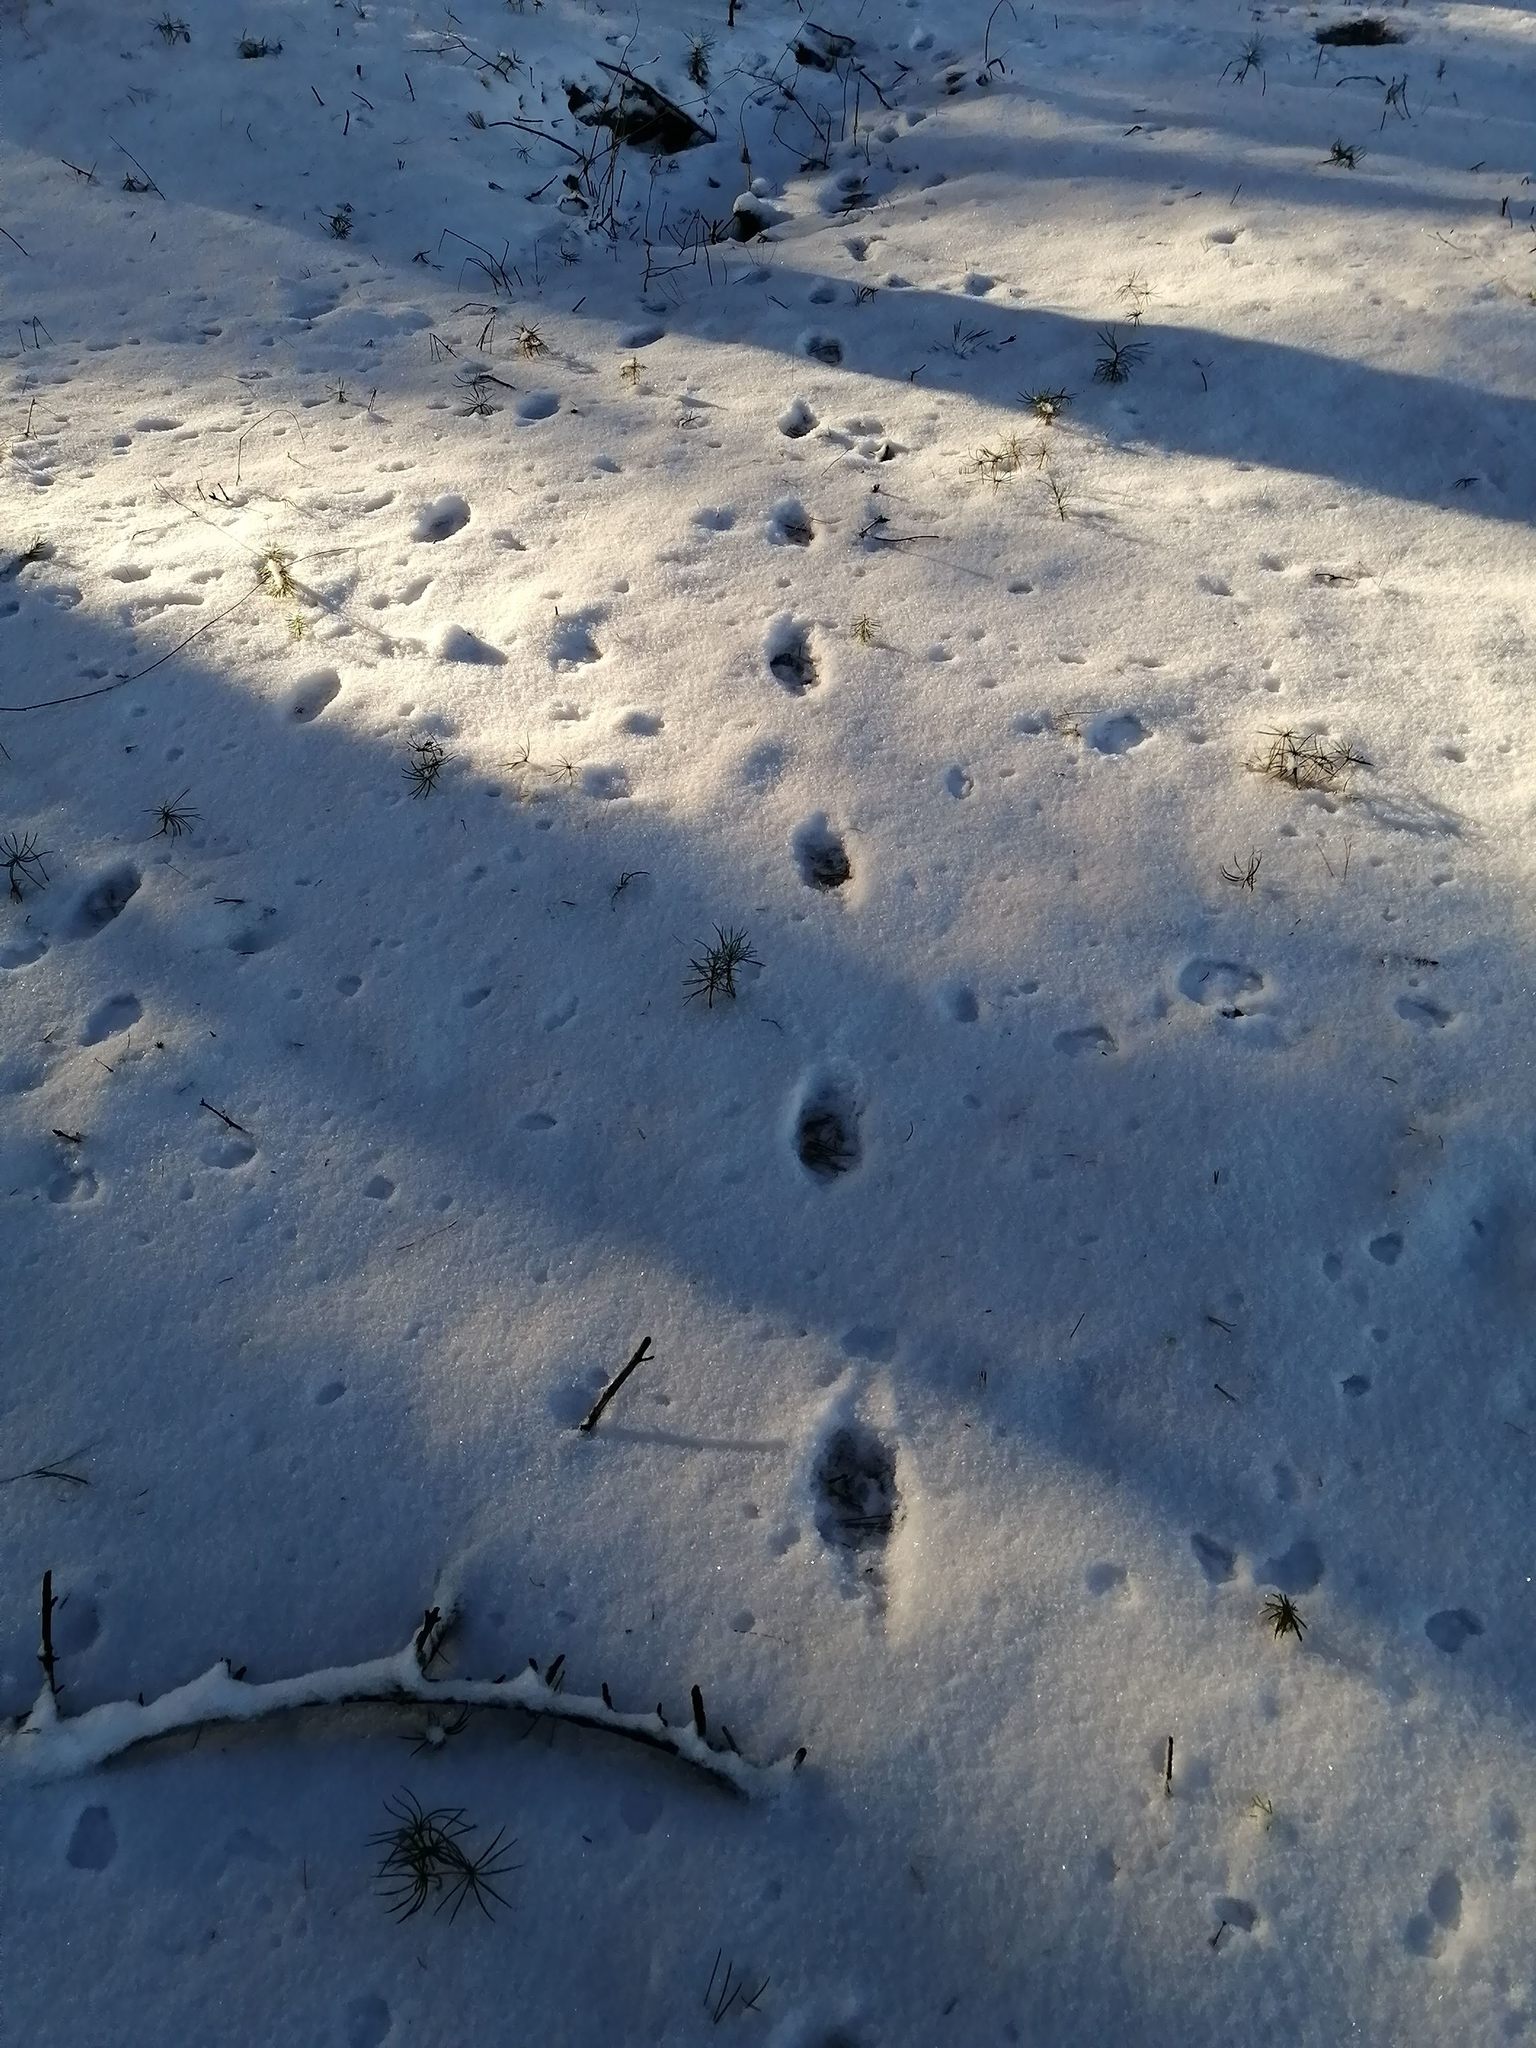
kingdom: Animalia
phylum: Chordata
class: Mammalia
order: Carnivora
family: Canidae
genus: Vulpes
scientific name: Vulpes vulpes
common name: Red fox
